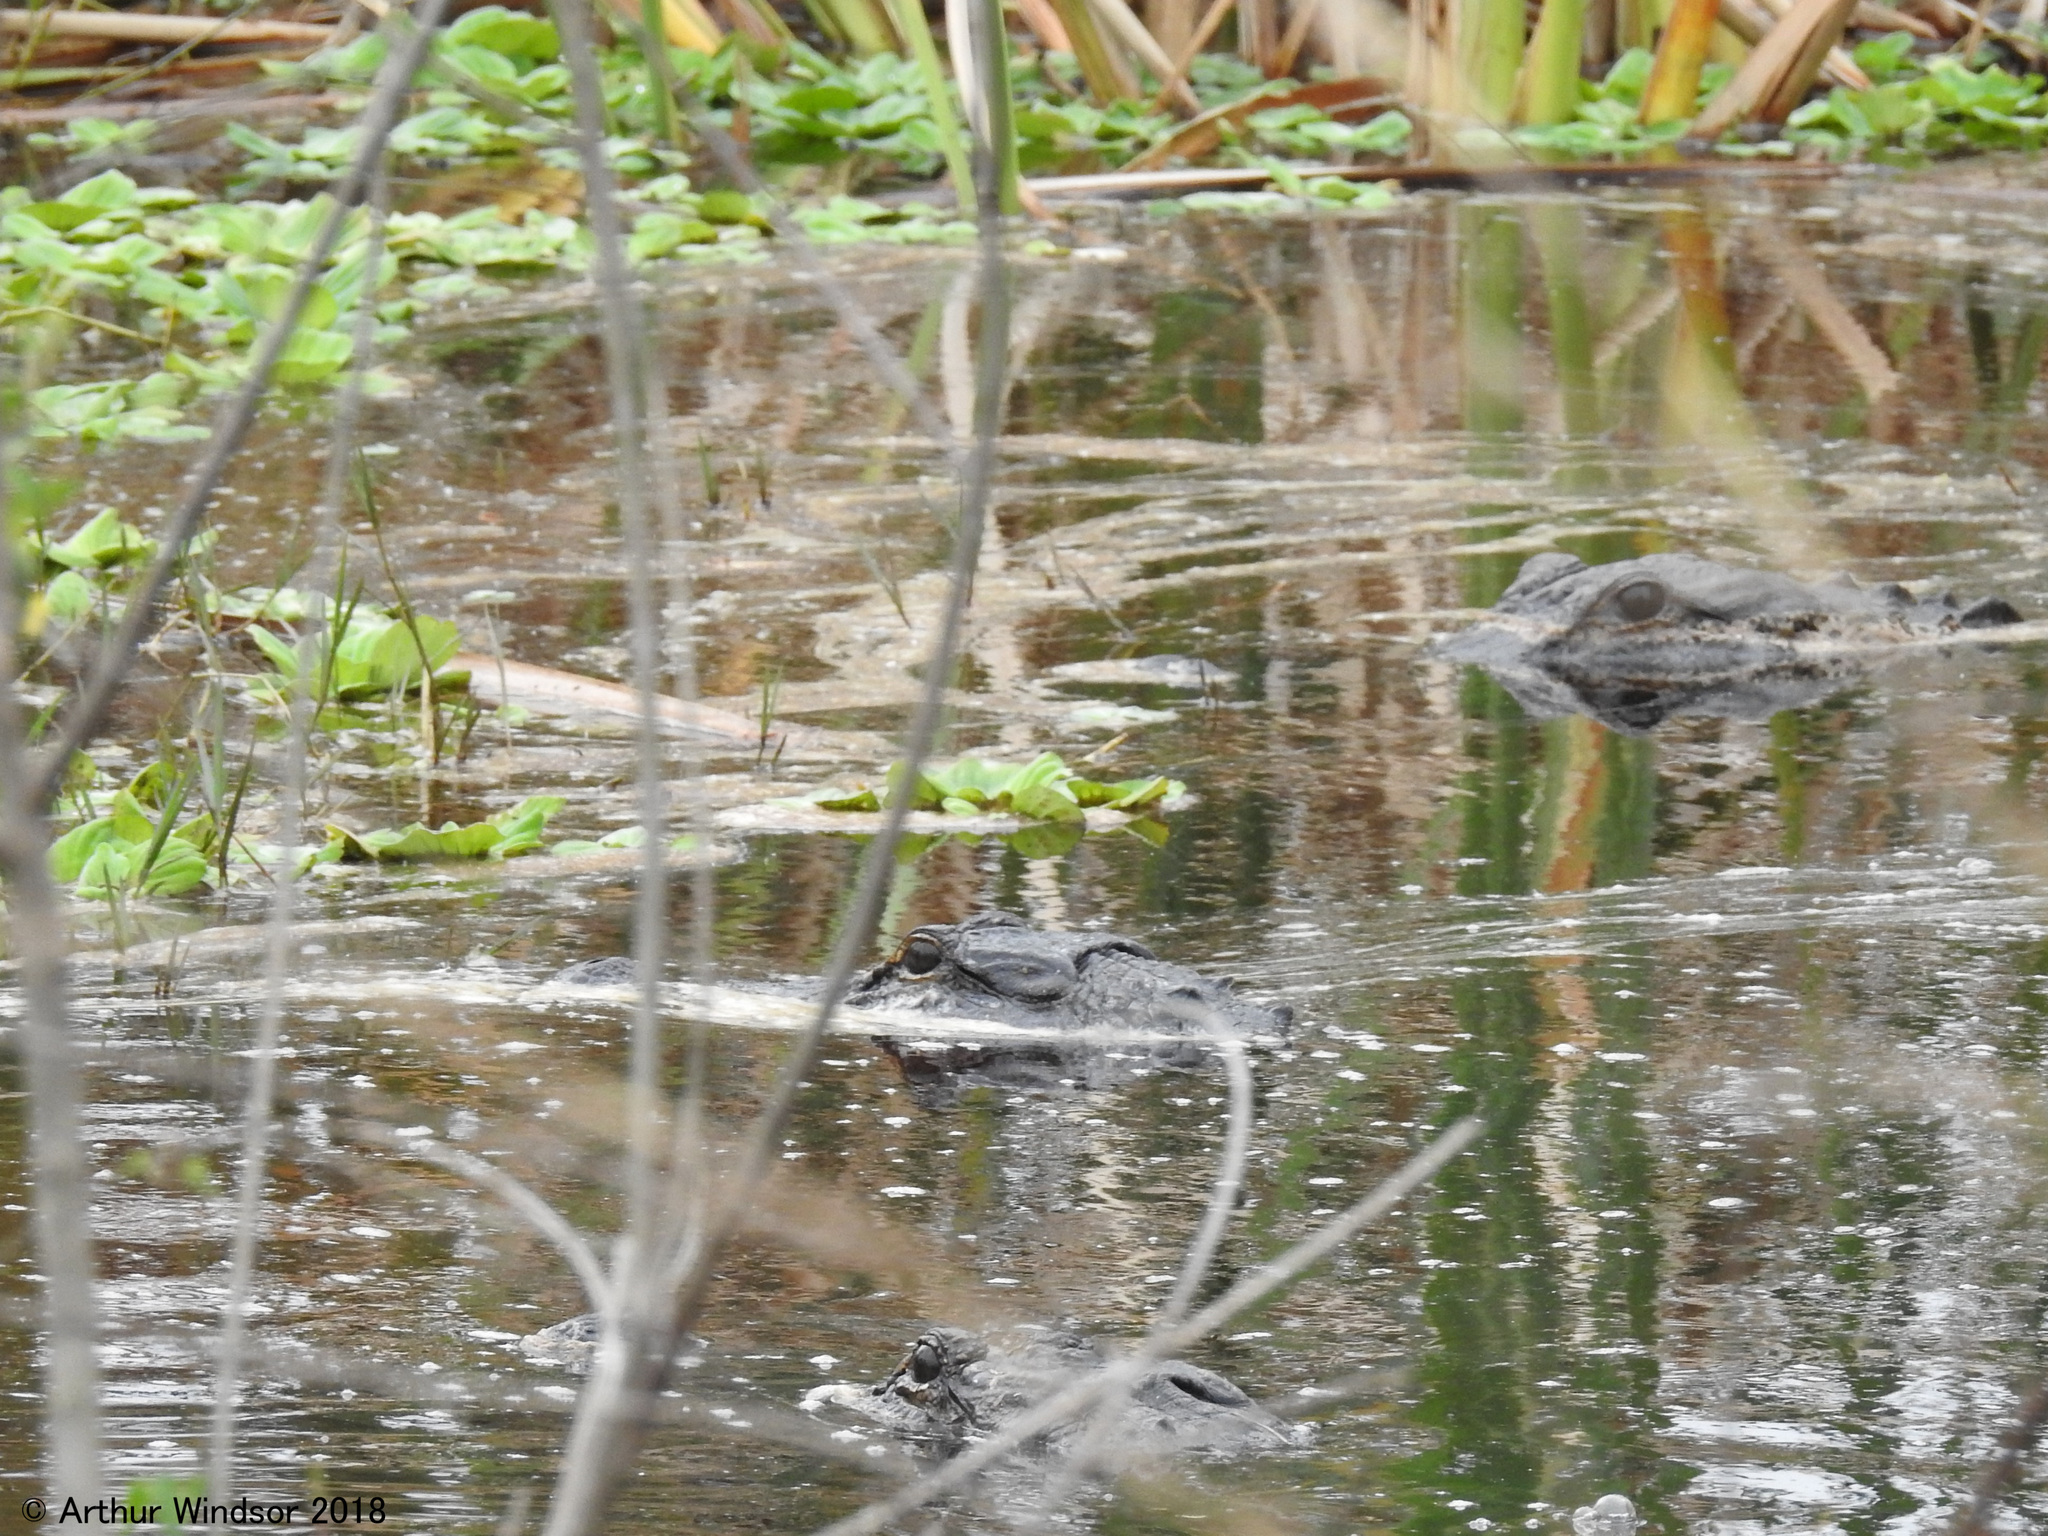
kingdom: Animalia
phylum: Chordata
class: Crocodylia
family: Alligatoridae
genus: Alligator
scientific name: Alligator mississippiensis
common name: American alligator
